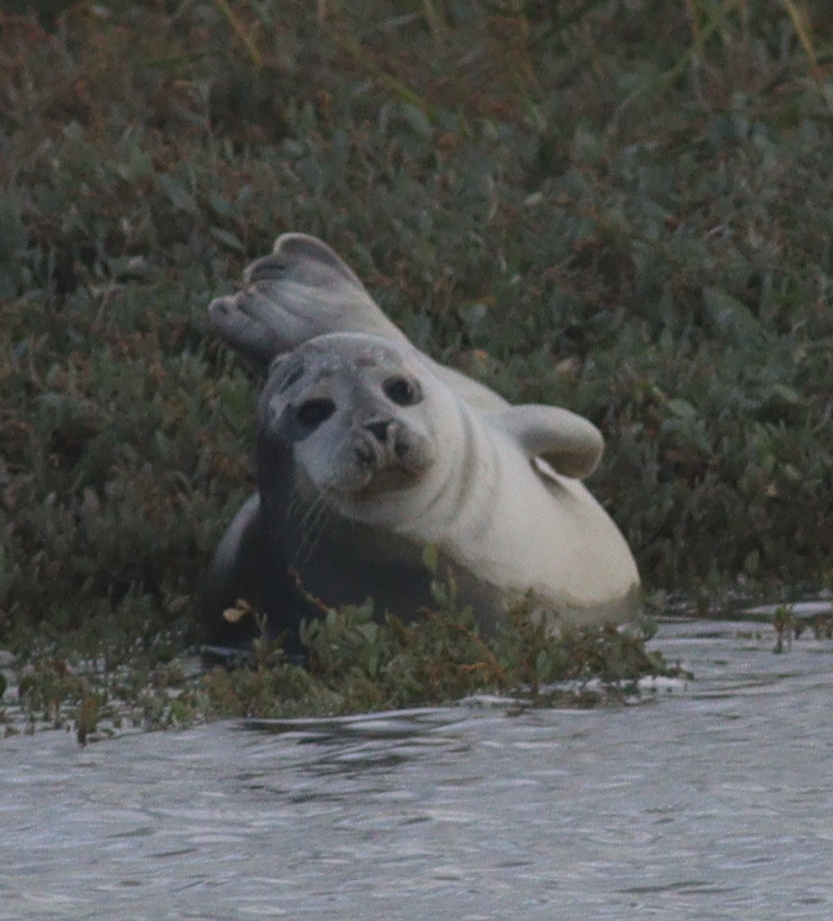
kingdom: Animalia
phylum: Chordata
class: Mammalia
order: Carnivora
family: Phocidae
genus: Phoca
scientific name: Phoca vitulina
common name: Harbor seal
